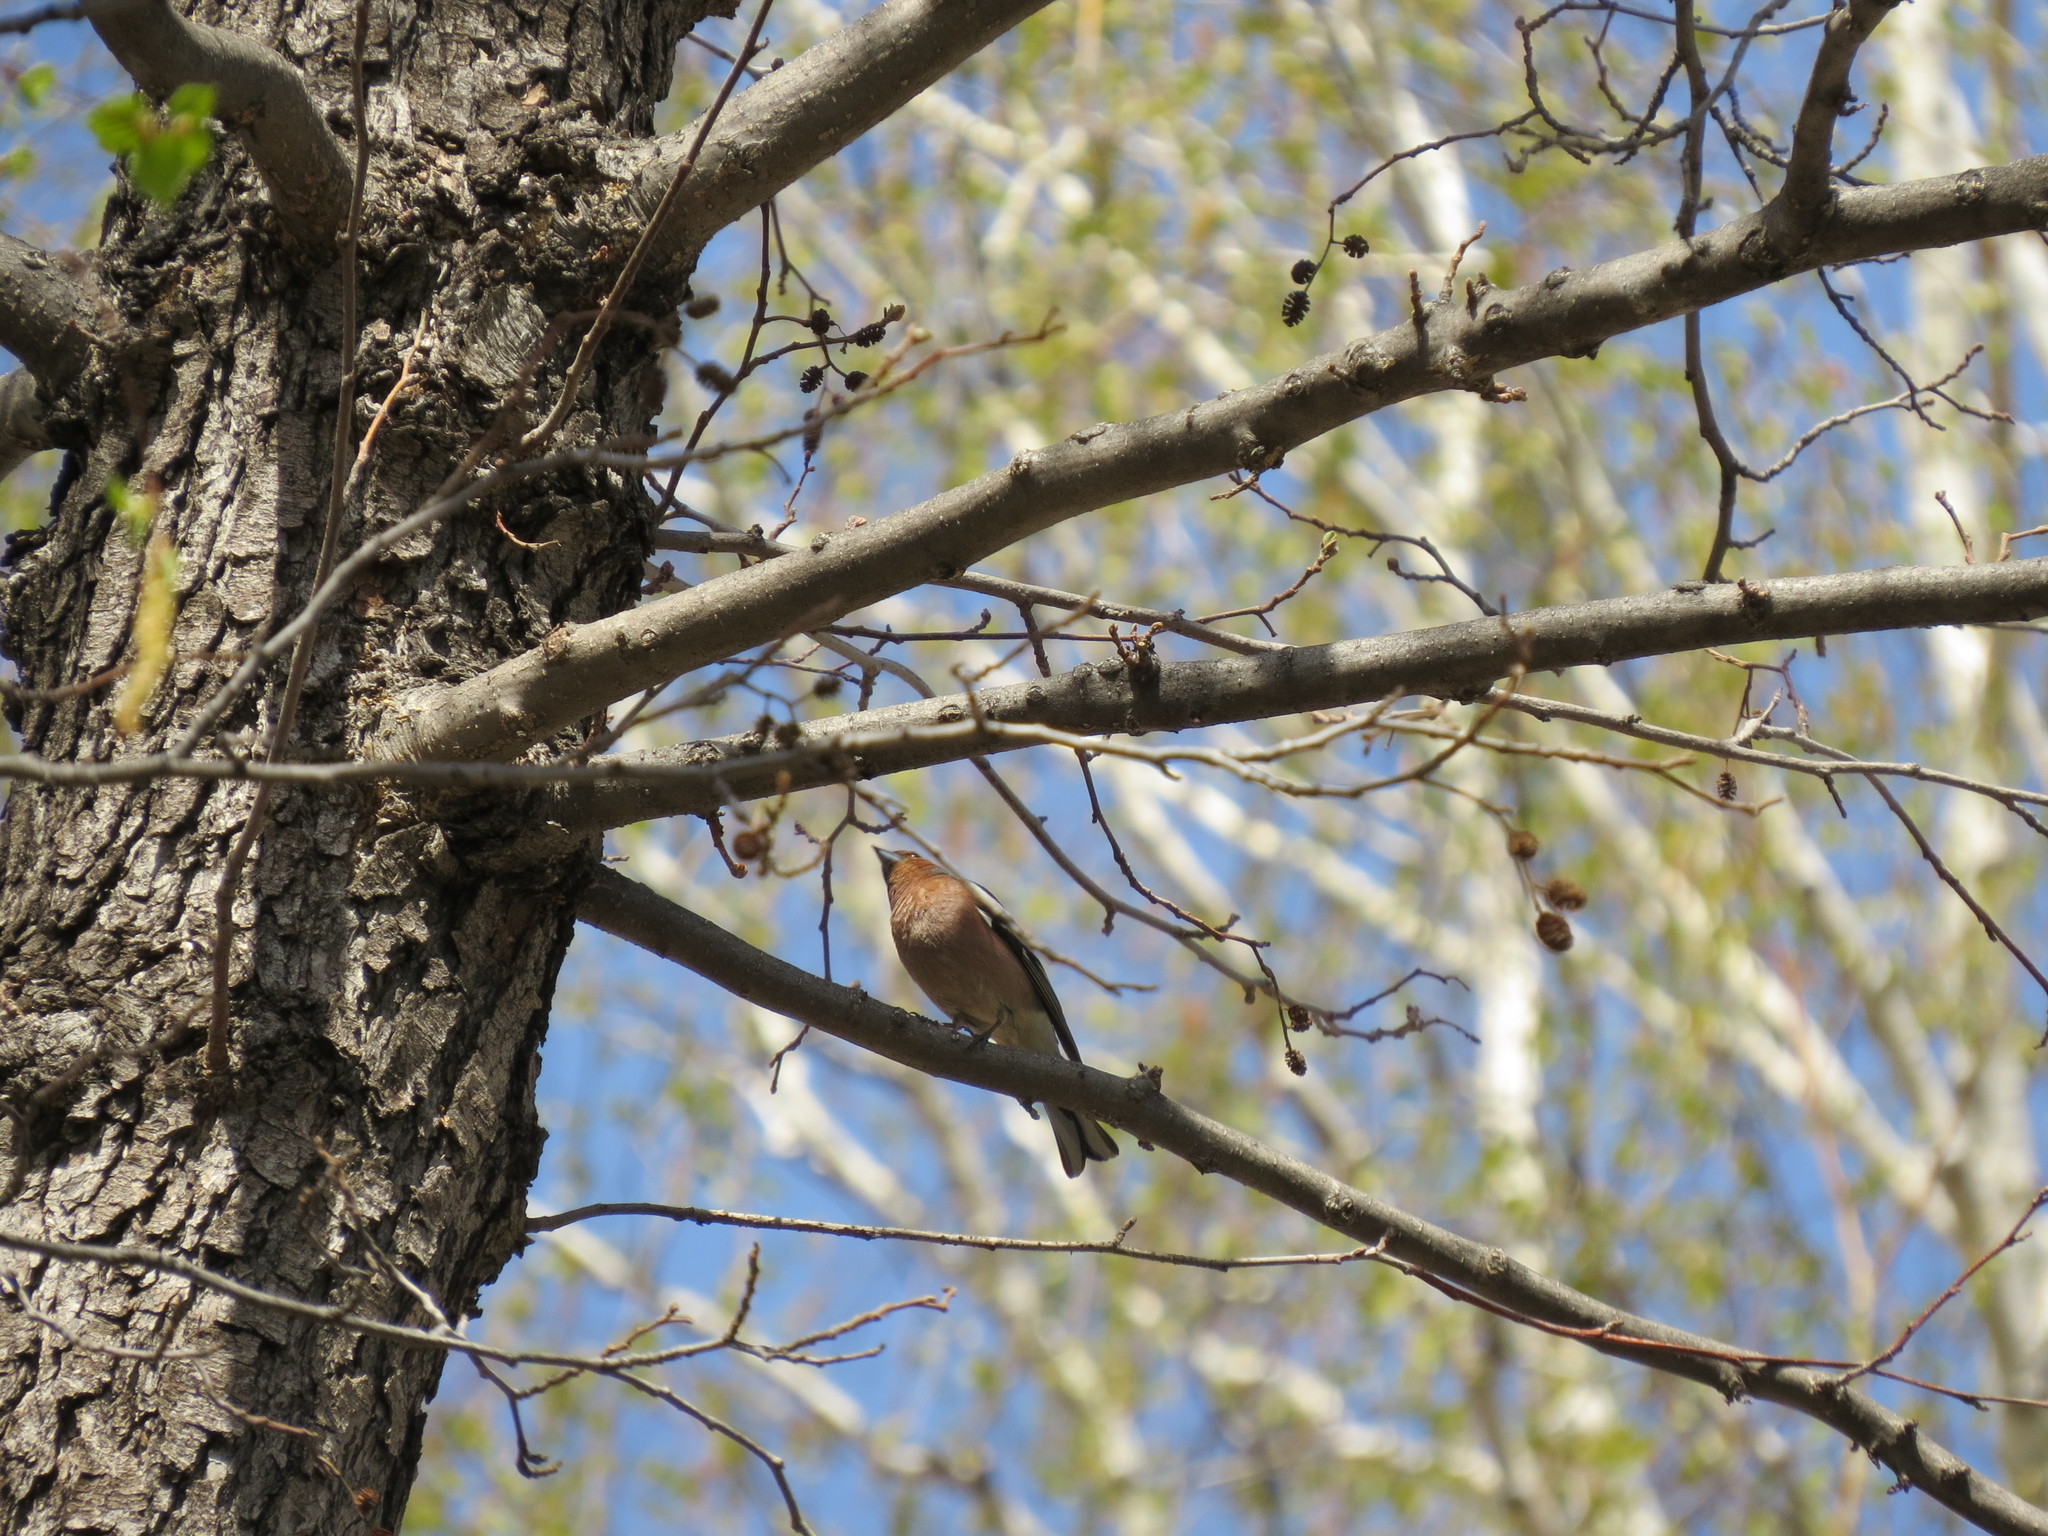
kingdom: Animalia
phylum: Chordata
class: Aves
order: Passeriformes
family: Fringillidae
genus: Fringilla
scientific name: Fringilla coelebs
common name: Common chaffinch
